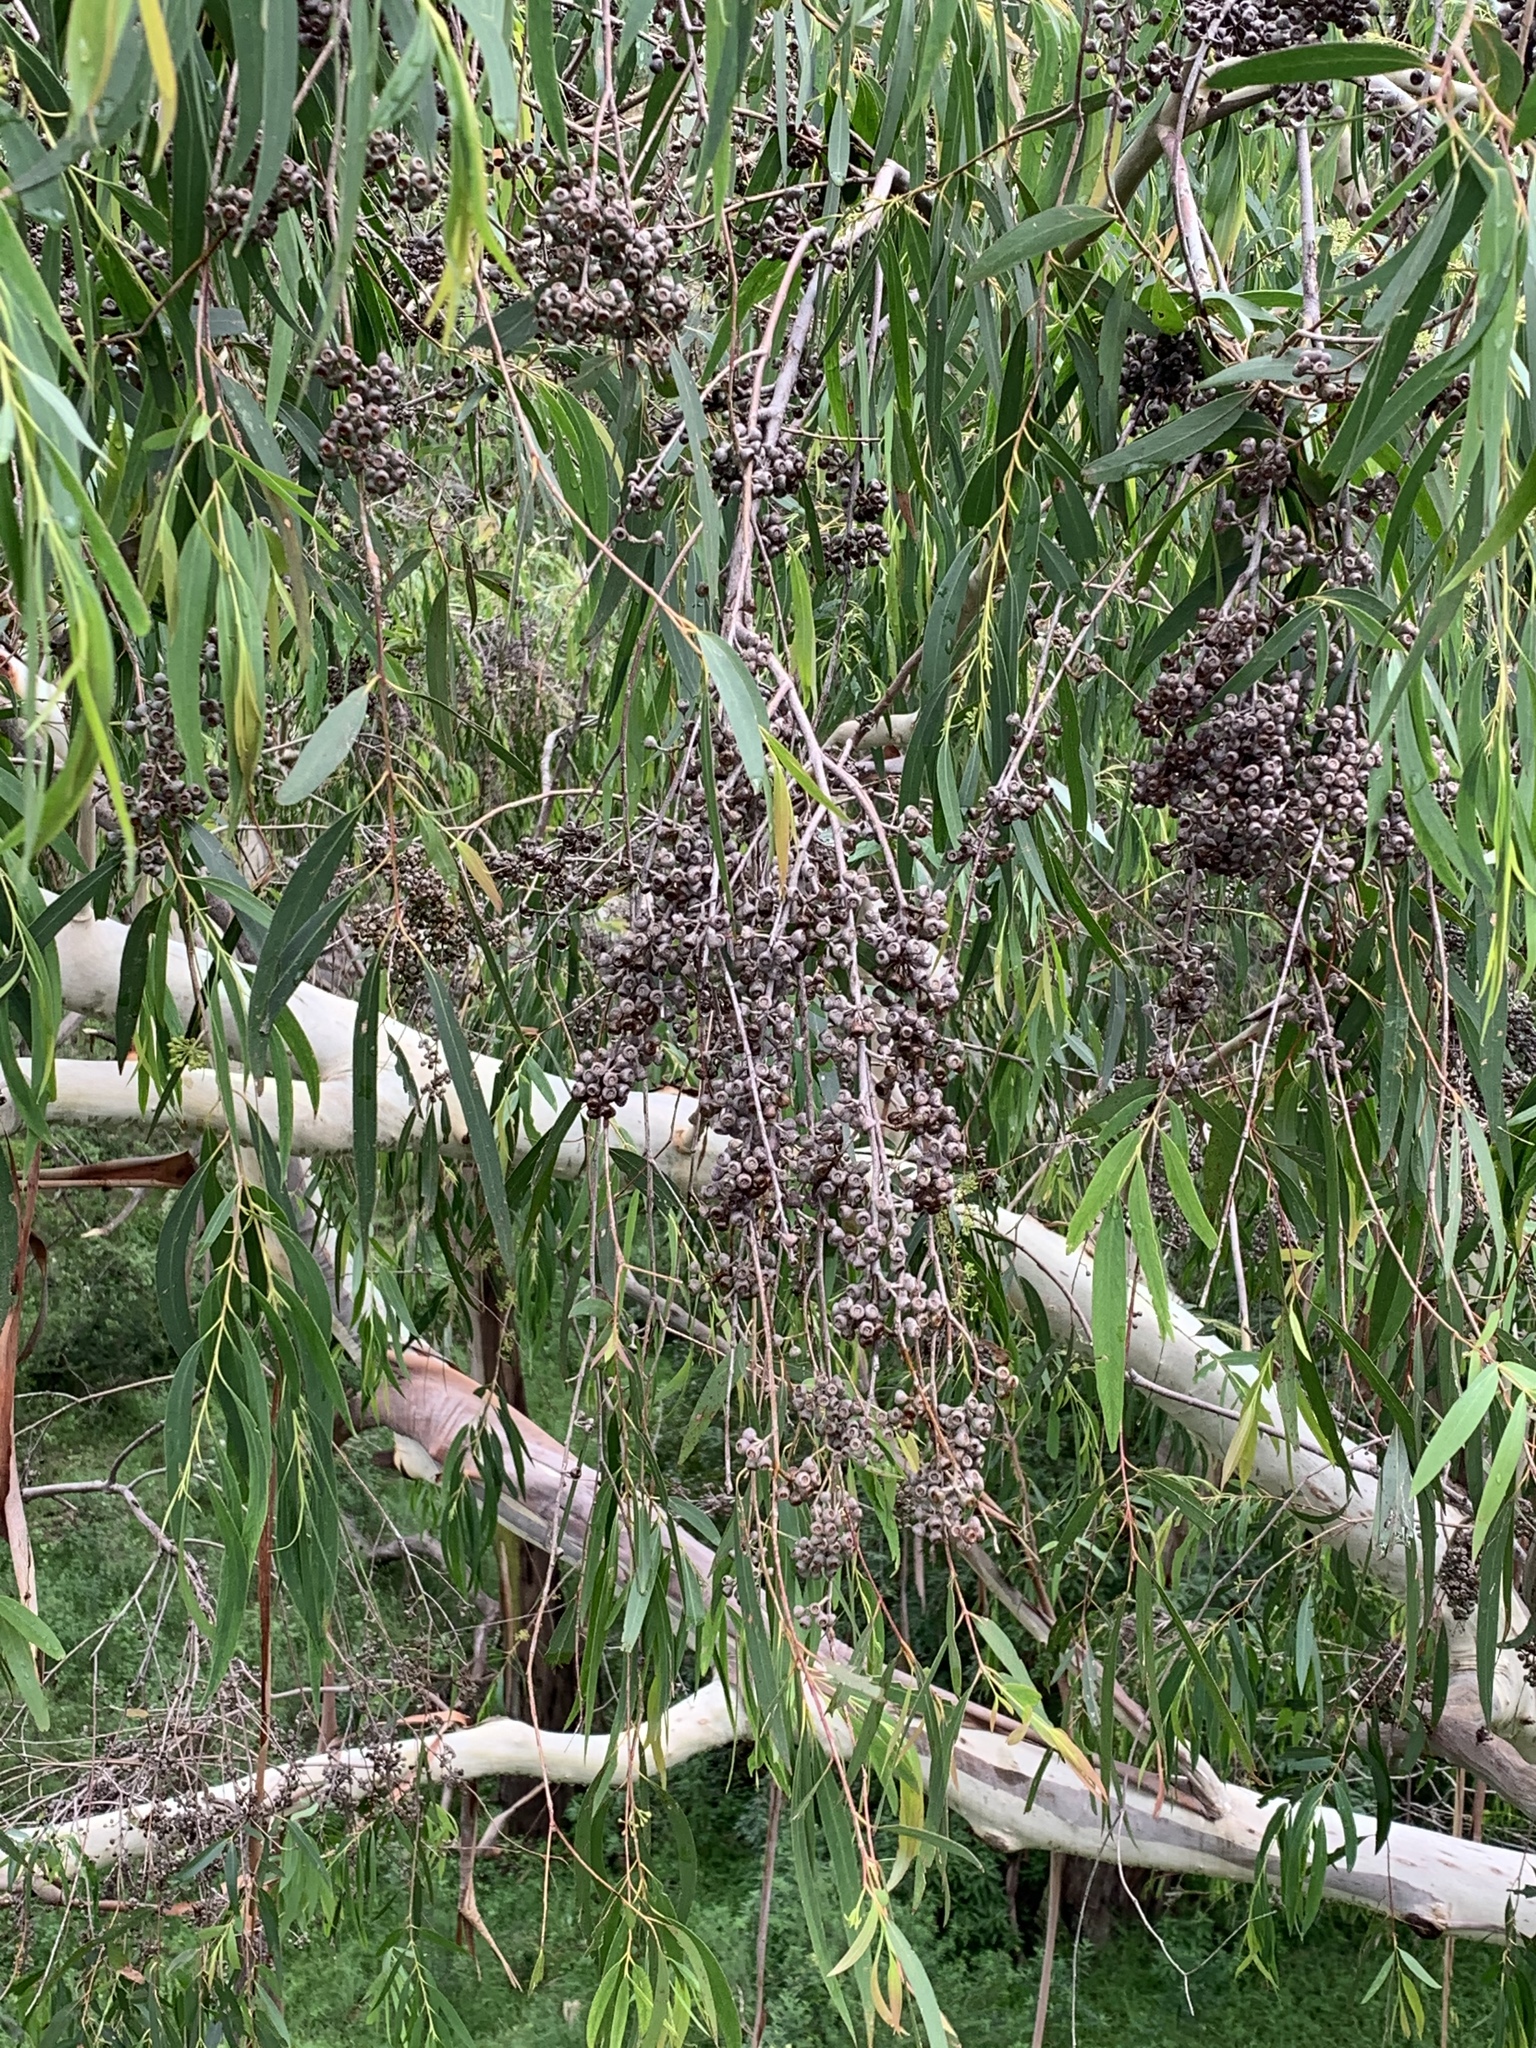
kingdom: Plantae
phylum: Tracheophyta
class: Magnoliopsida
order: Myrtales
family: Myrtaceae
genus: Eucalyptus
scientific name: Eucalyptus elata
